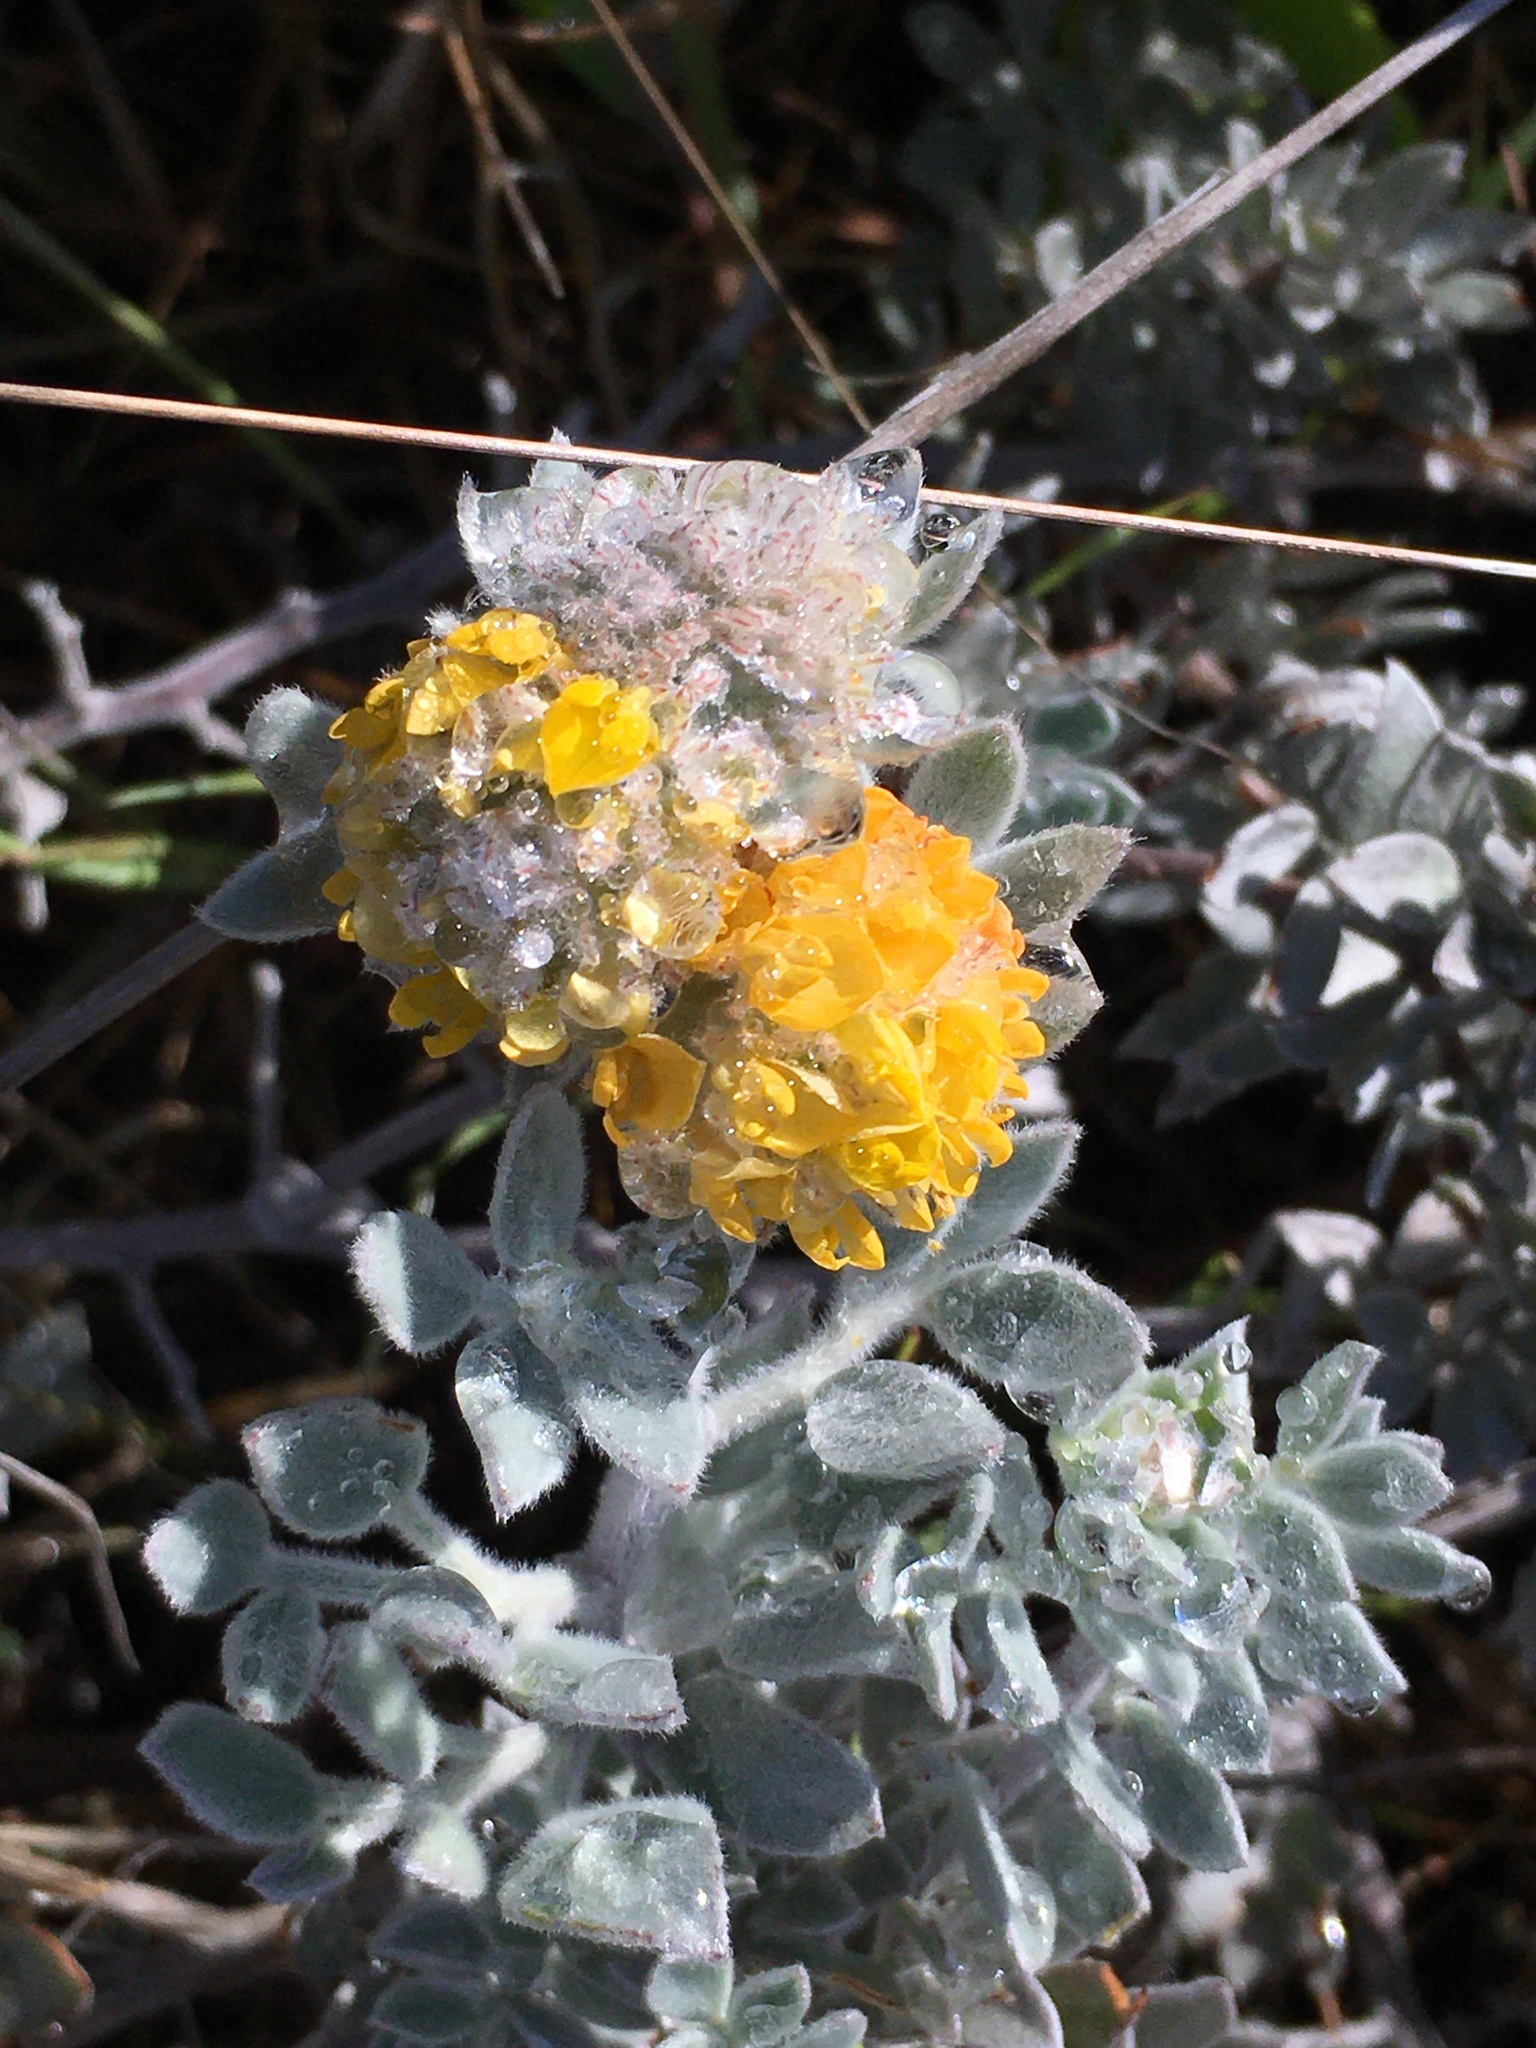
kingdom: Plantae
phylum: Tracheophyta
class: Magnoliopsida
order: Fabales
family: Fabaceae
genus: Acmispon
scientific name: Acmispon argophyllus
